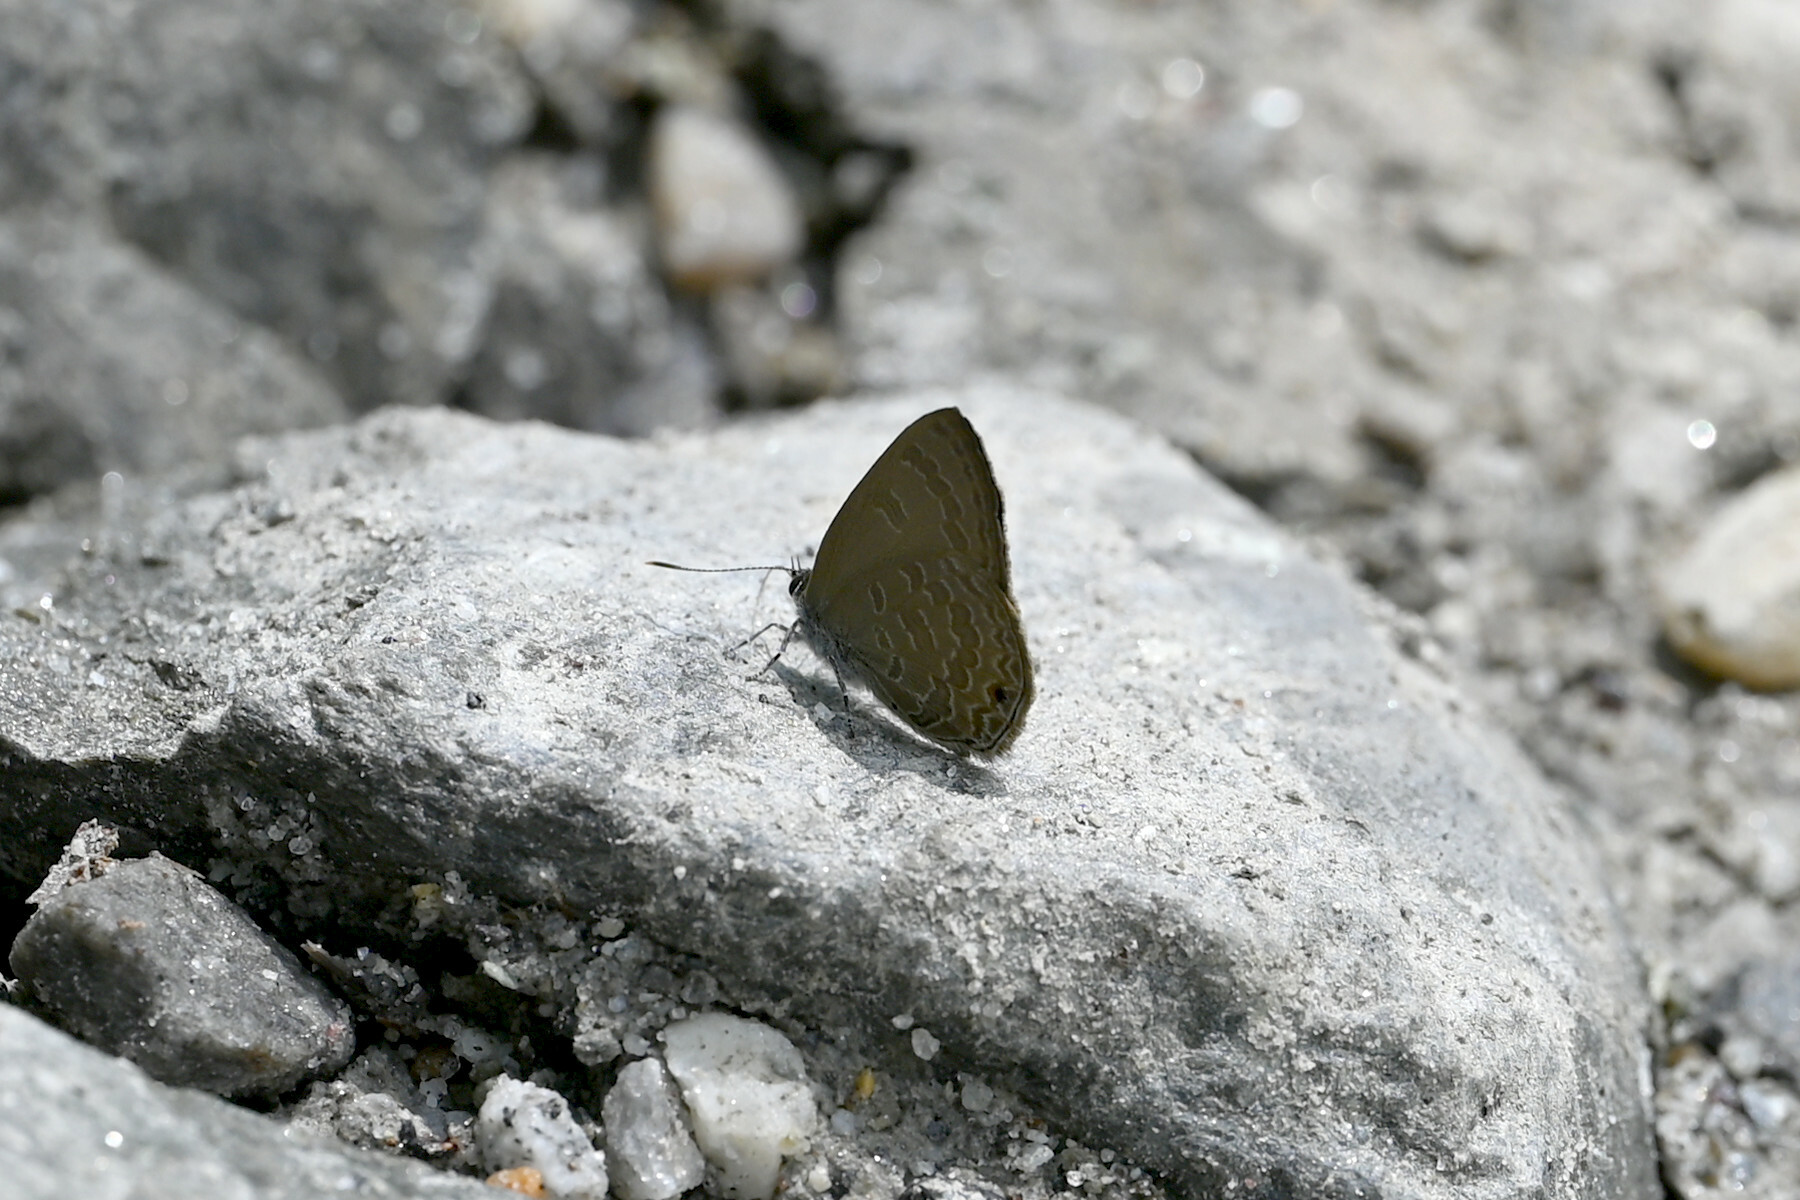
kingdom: Animalia
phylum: Arthropoda
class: Insecta
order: Lepidoptera
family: Lycaenidae
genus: Anthene
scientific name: Anthene emolus
